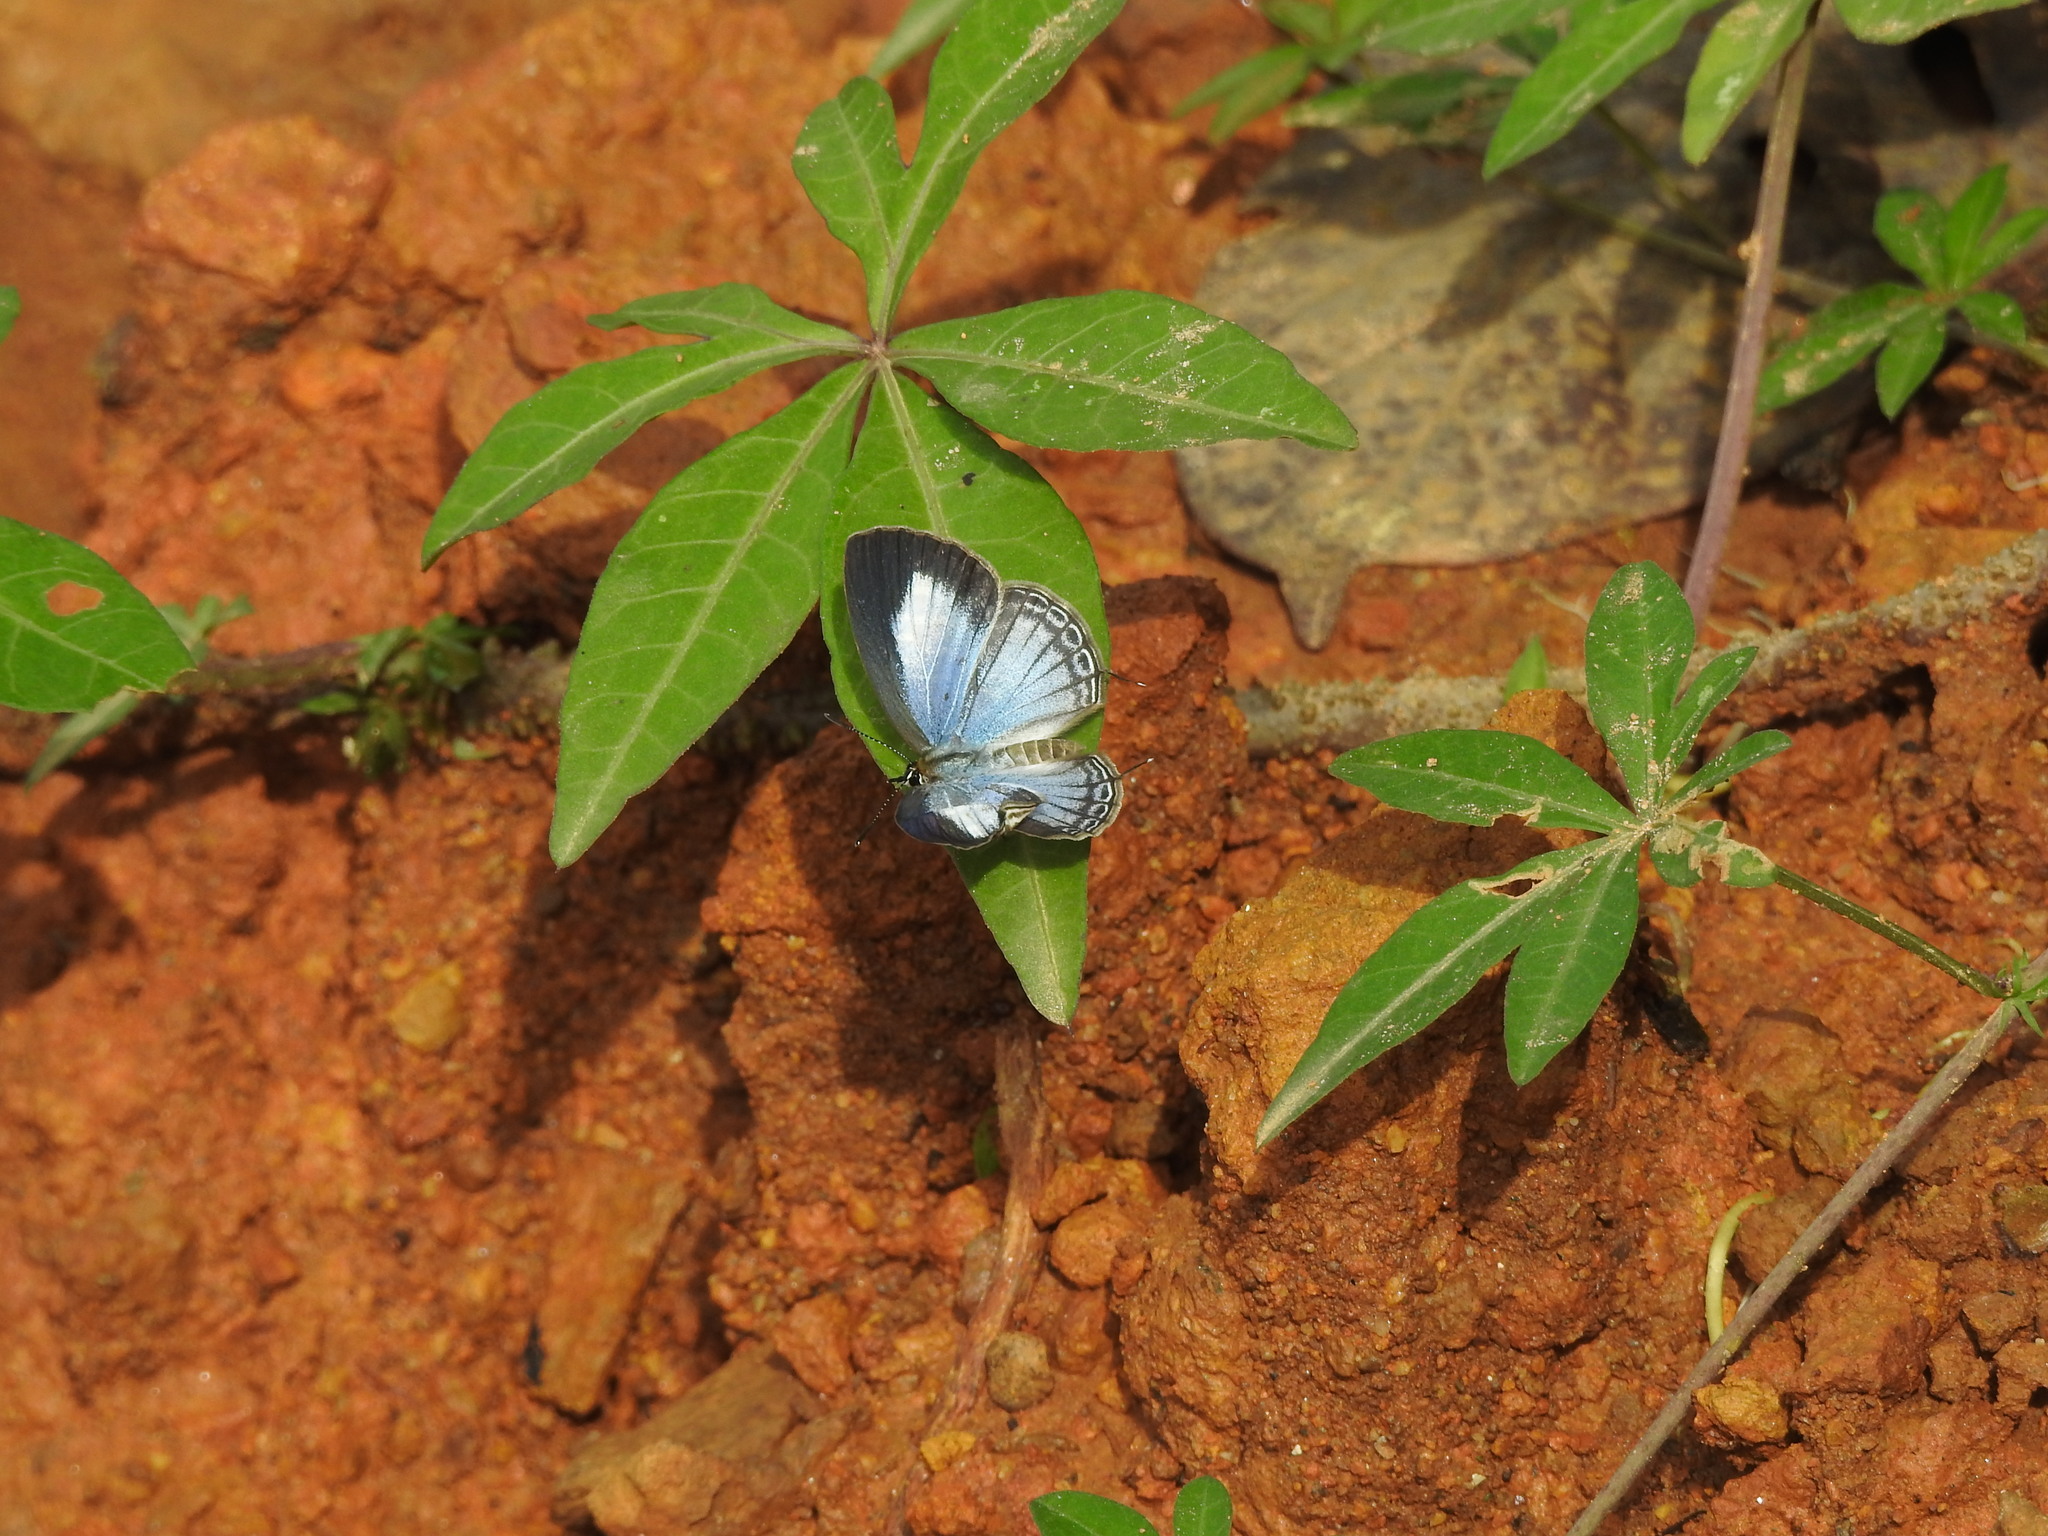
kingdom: Animalia
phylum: Arthropoda
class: Insecta
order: Lepidoptera
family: Lycaenidae
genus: Nacaduba
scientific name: Nacaduba kurava
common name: Transparent 6-line blue
